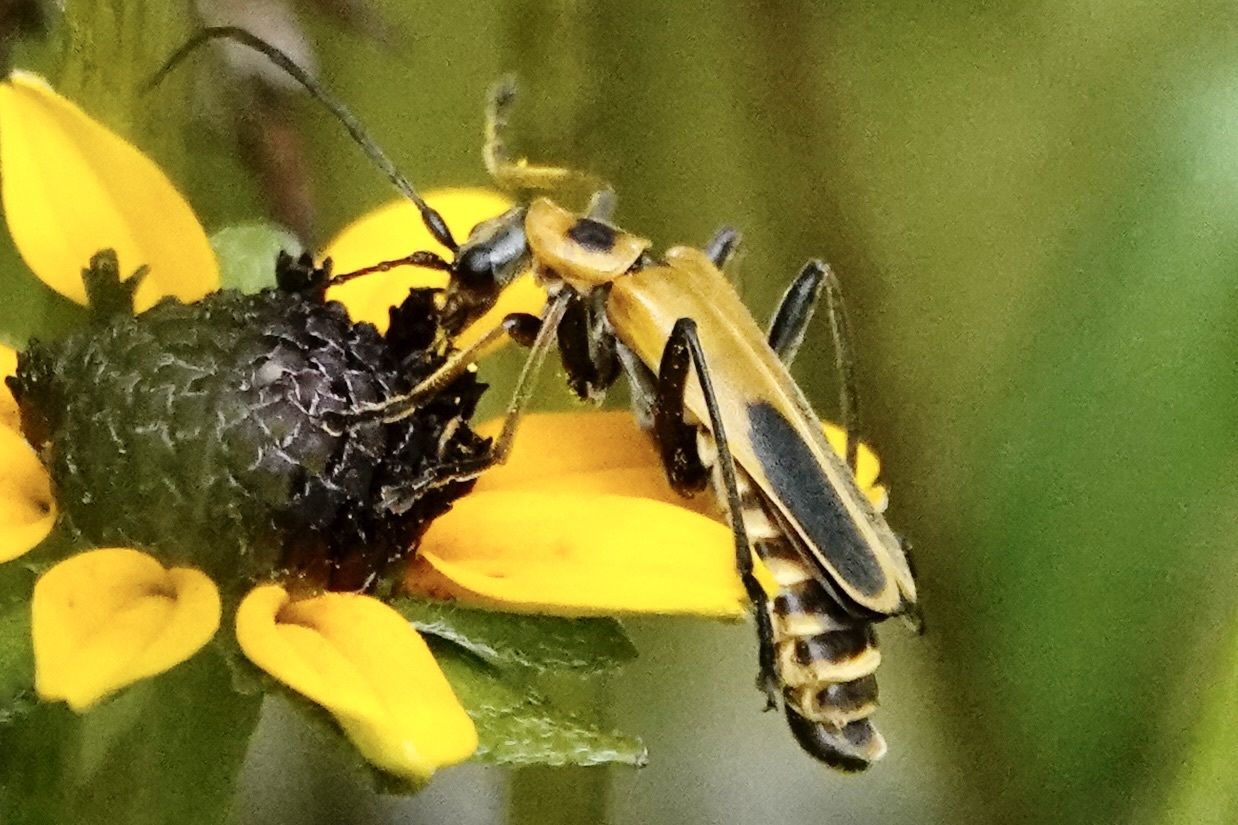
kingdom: Animalia
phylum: Arthropoda
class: Insecta
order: Coleoptera
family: Cantharidae
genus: Chauliognathus
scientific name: Chauliognathus pensylvanicus
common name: Goldenrod soldier beetle
